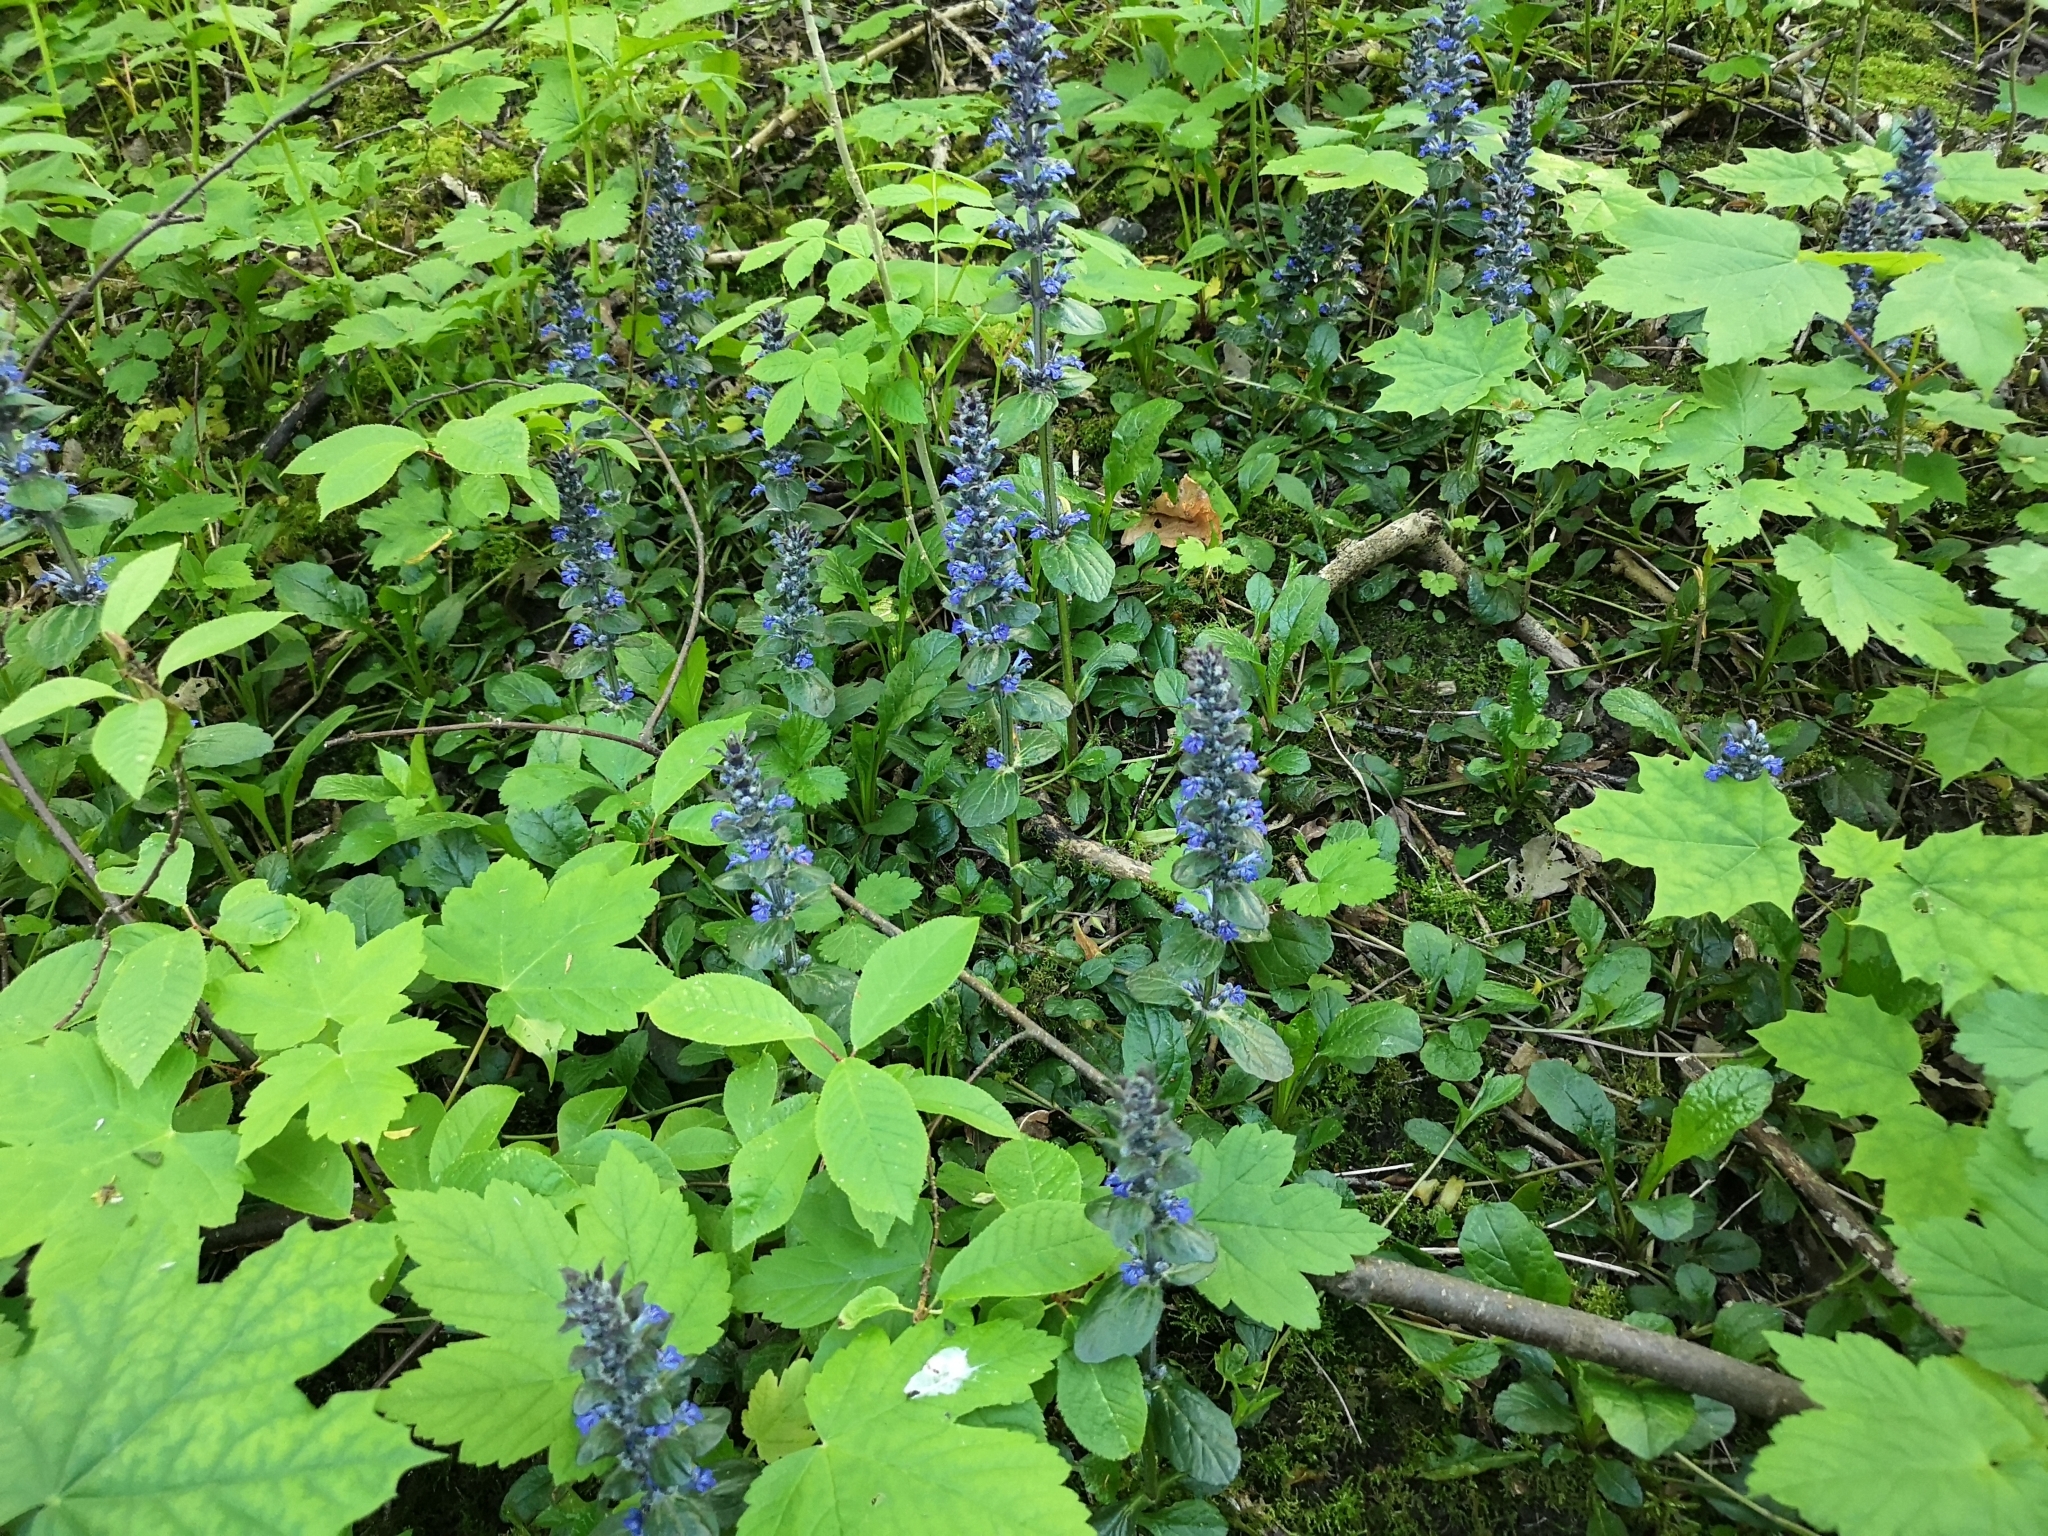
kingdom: Plantae
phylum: Tracheophyta
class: Magnoliopsida
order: Lamiales
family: Lamiaceae
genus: Ajuga
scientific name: Ajuga reptans
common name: Bugle
